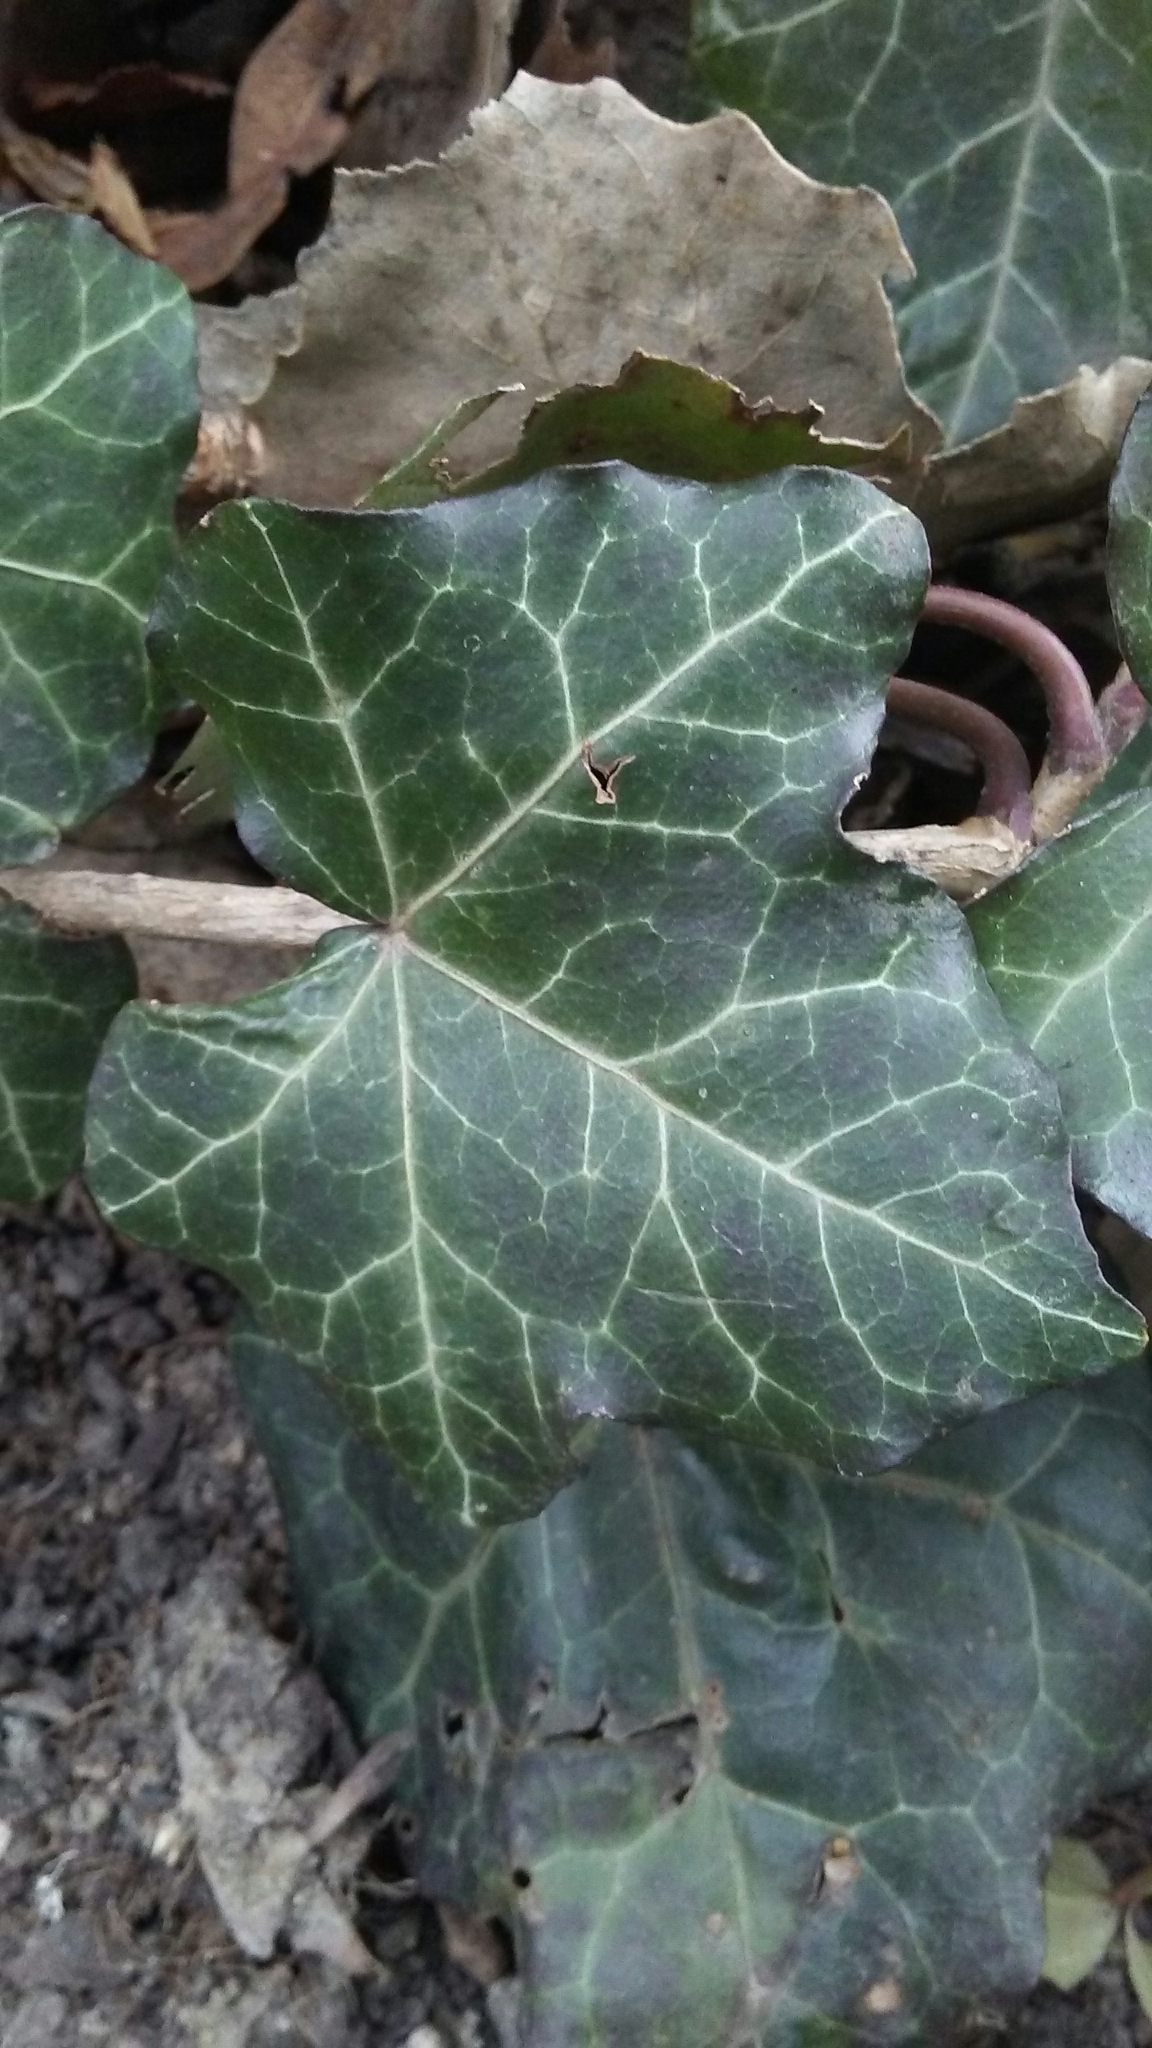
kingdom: Plantae
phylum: Tracheophyta
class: Magnoliopsida
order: Apiales
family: Araliaceae
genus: Hedera
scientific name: Hedera helix
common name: Ivy
